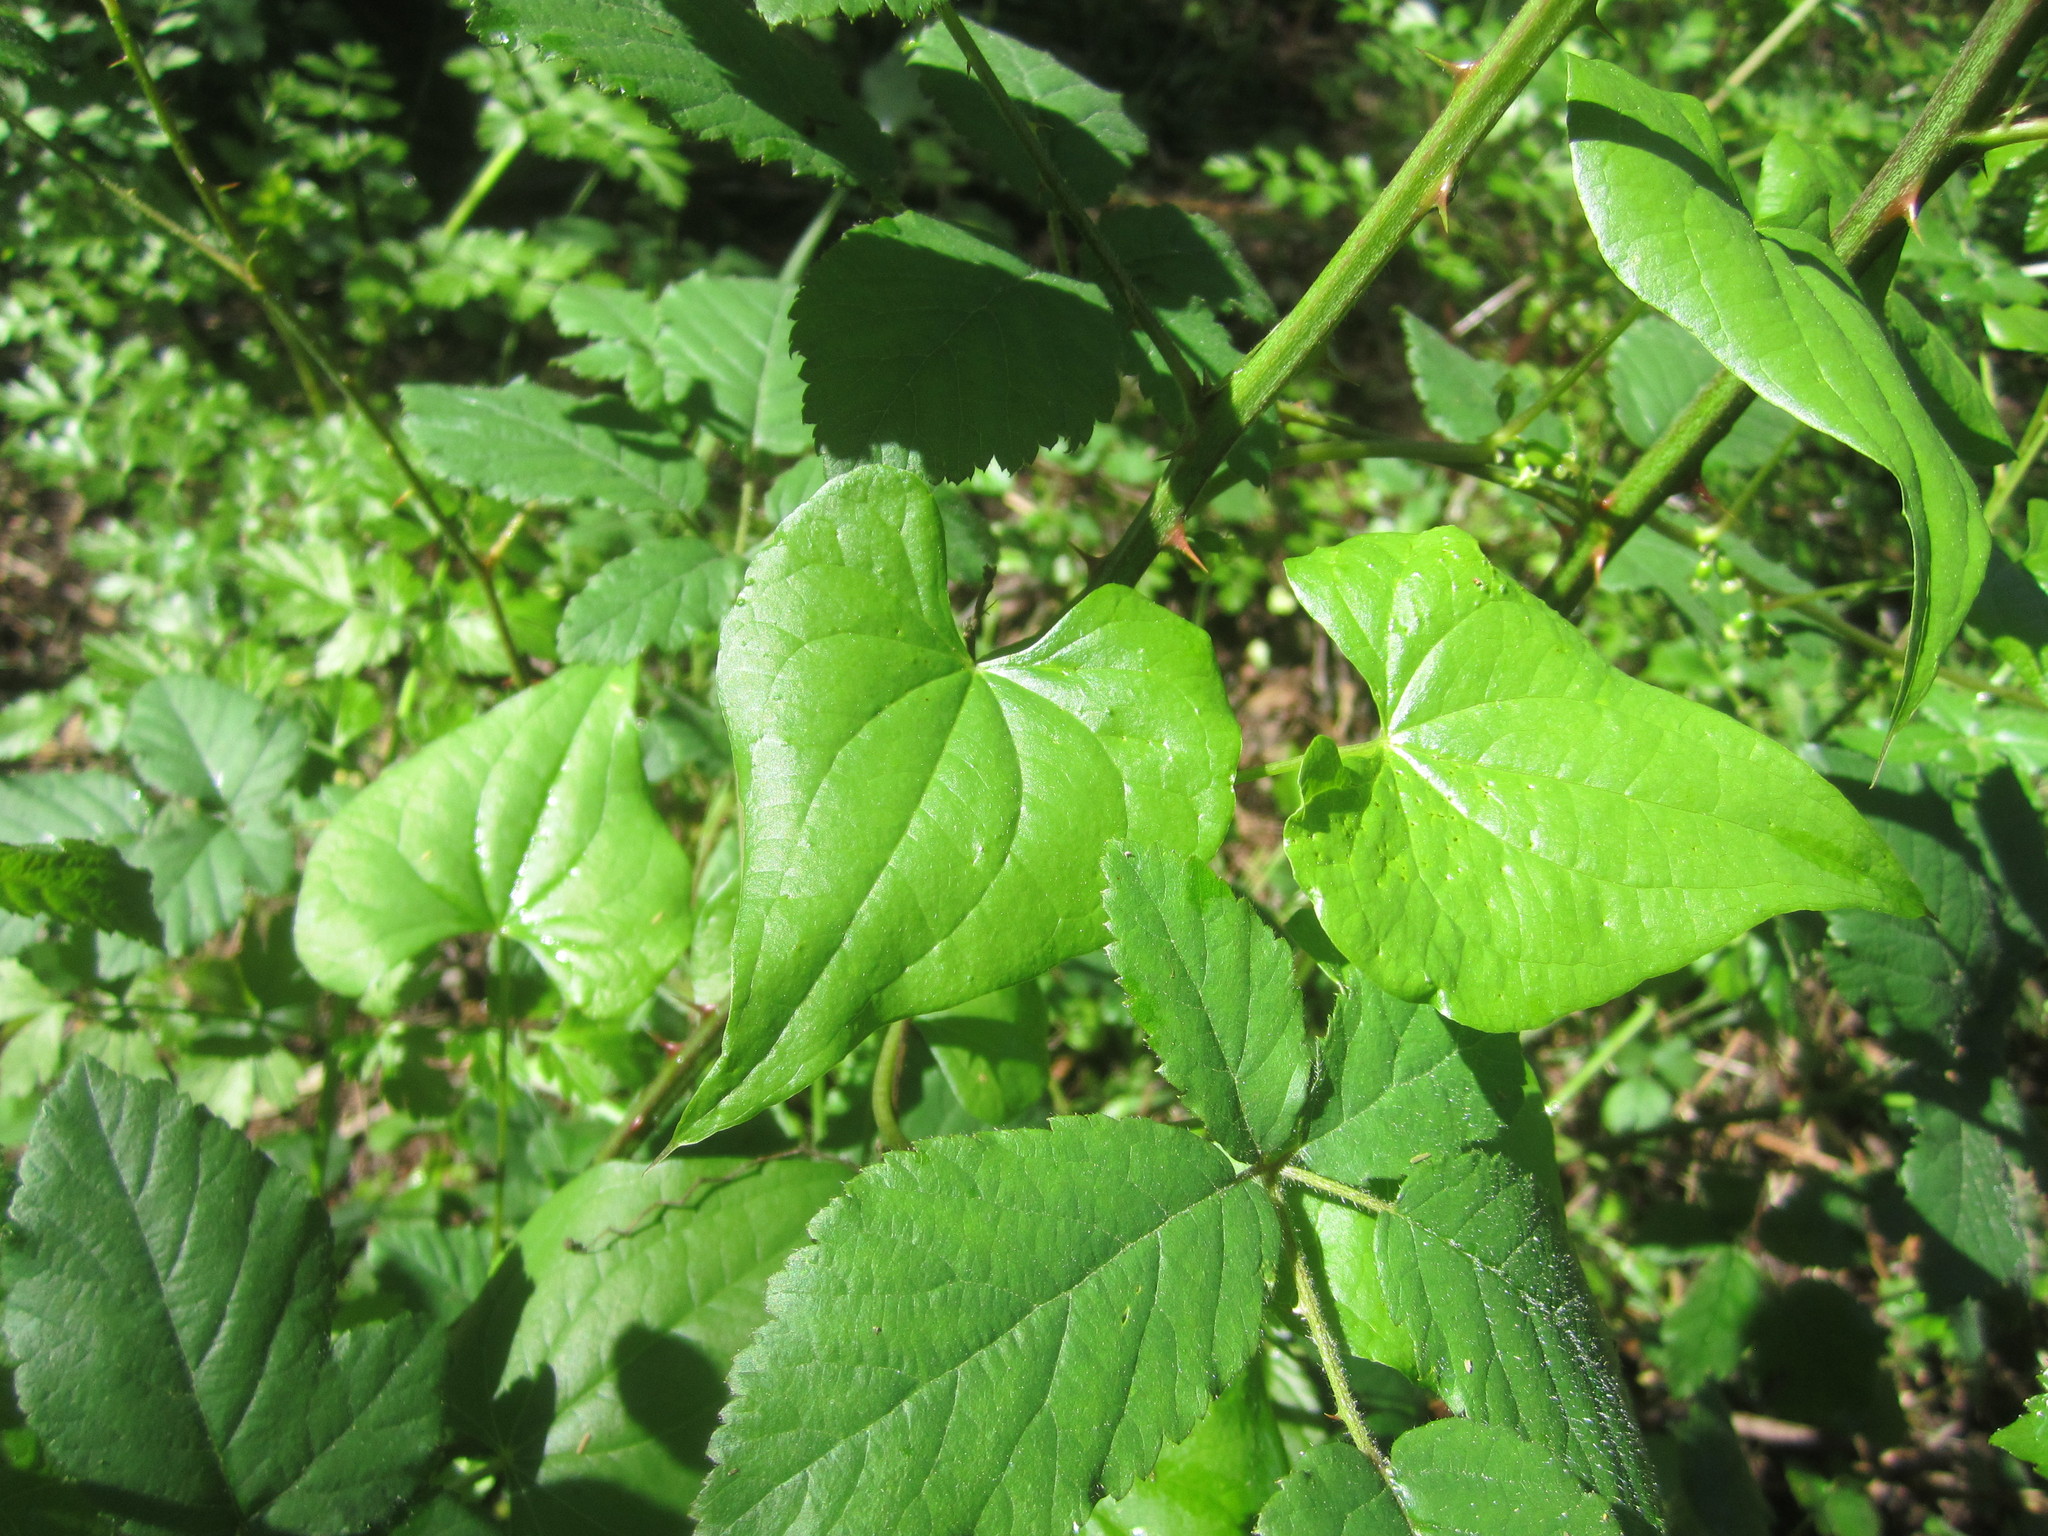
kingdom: Plantae
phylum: Tracheophyta
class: Liliopsida
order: Dioscoreales
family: Dioscoreaceae
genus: Dioscorea
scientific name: Dioscorea communis
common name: Black-bindweed
